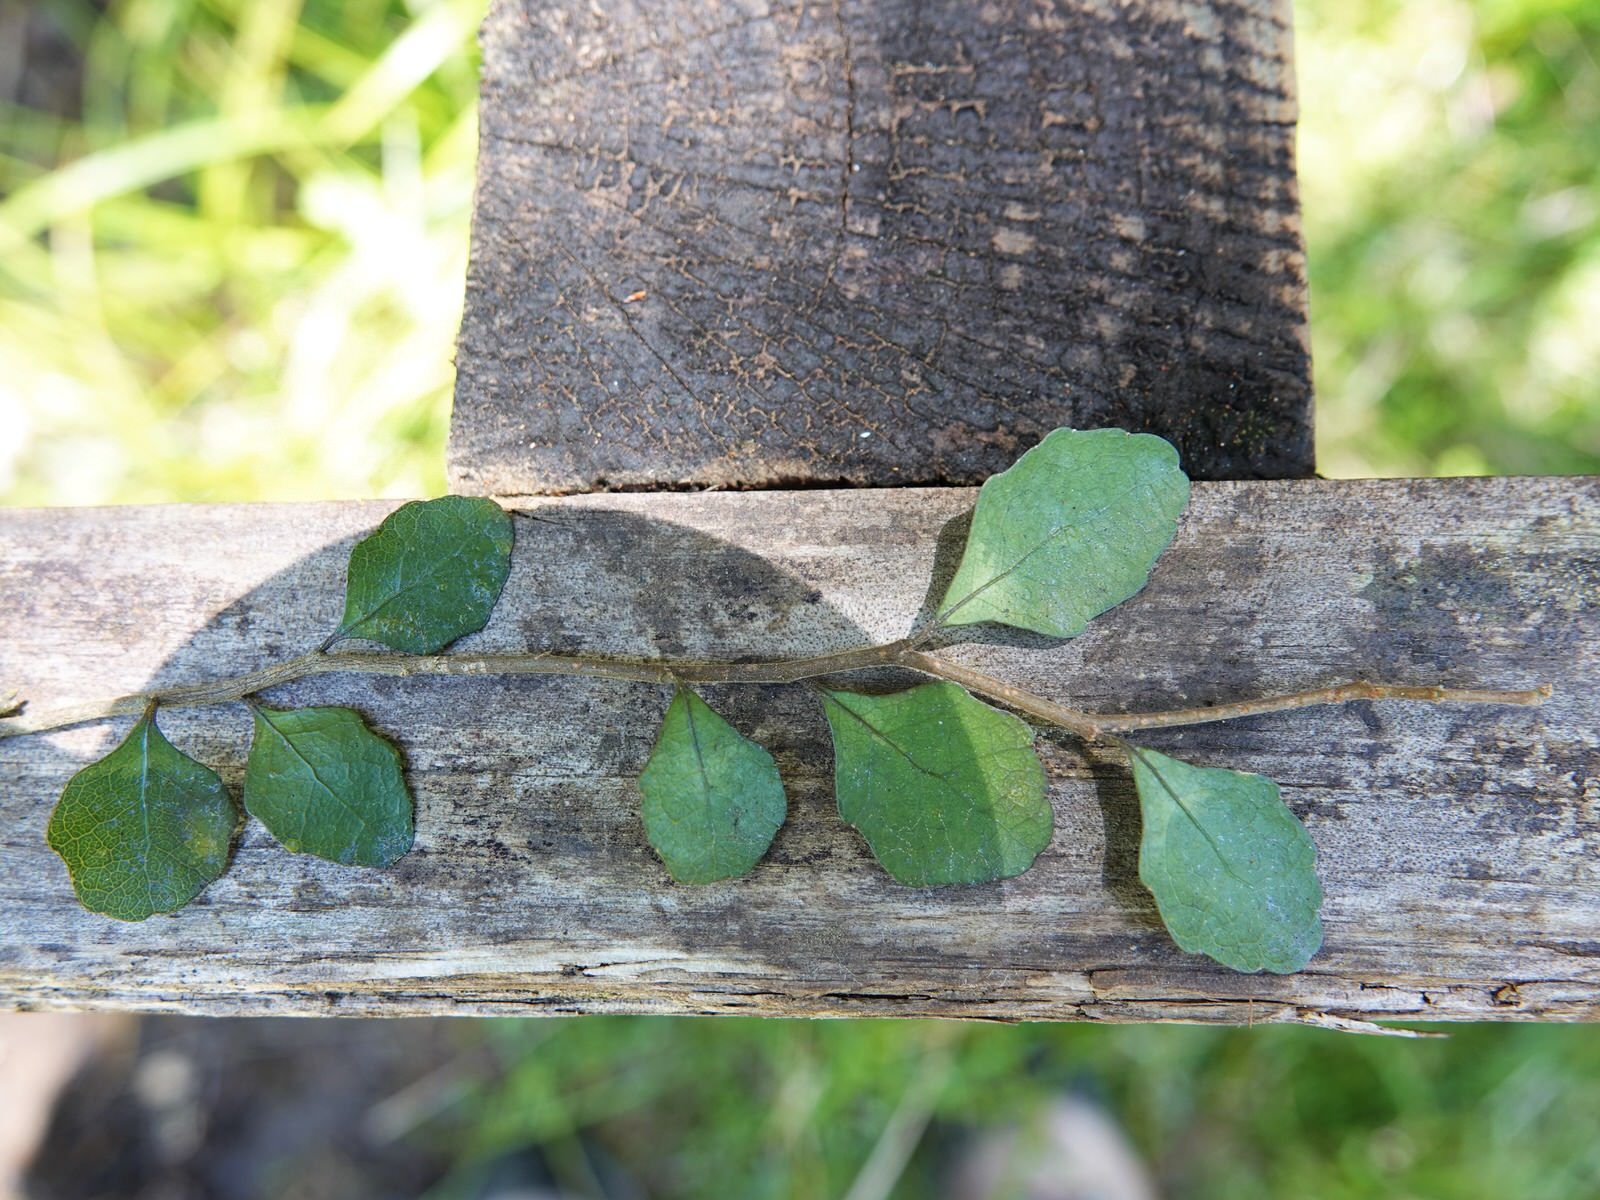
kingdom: Plantae
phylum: Tracheophyta
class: Magnoliopsida
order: Malpighiales
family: Violaceae
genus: Melicytus
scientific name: Melicytus micranthus
